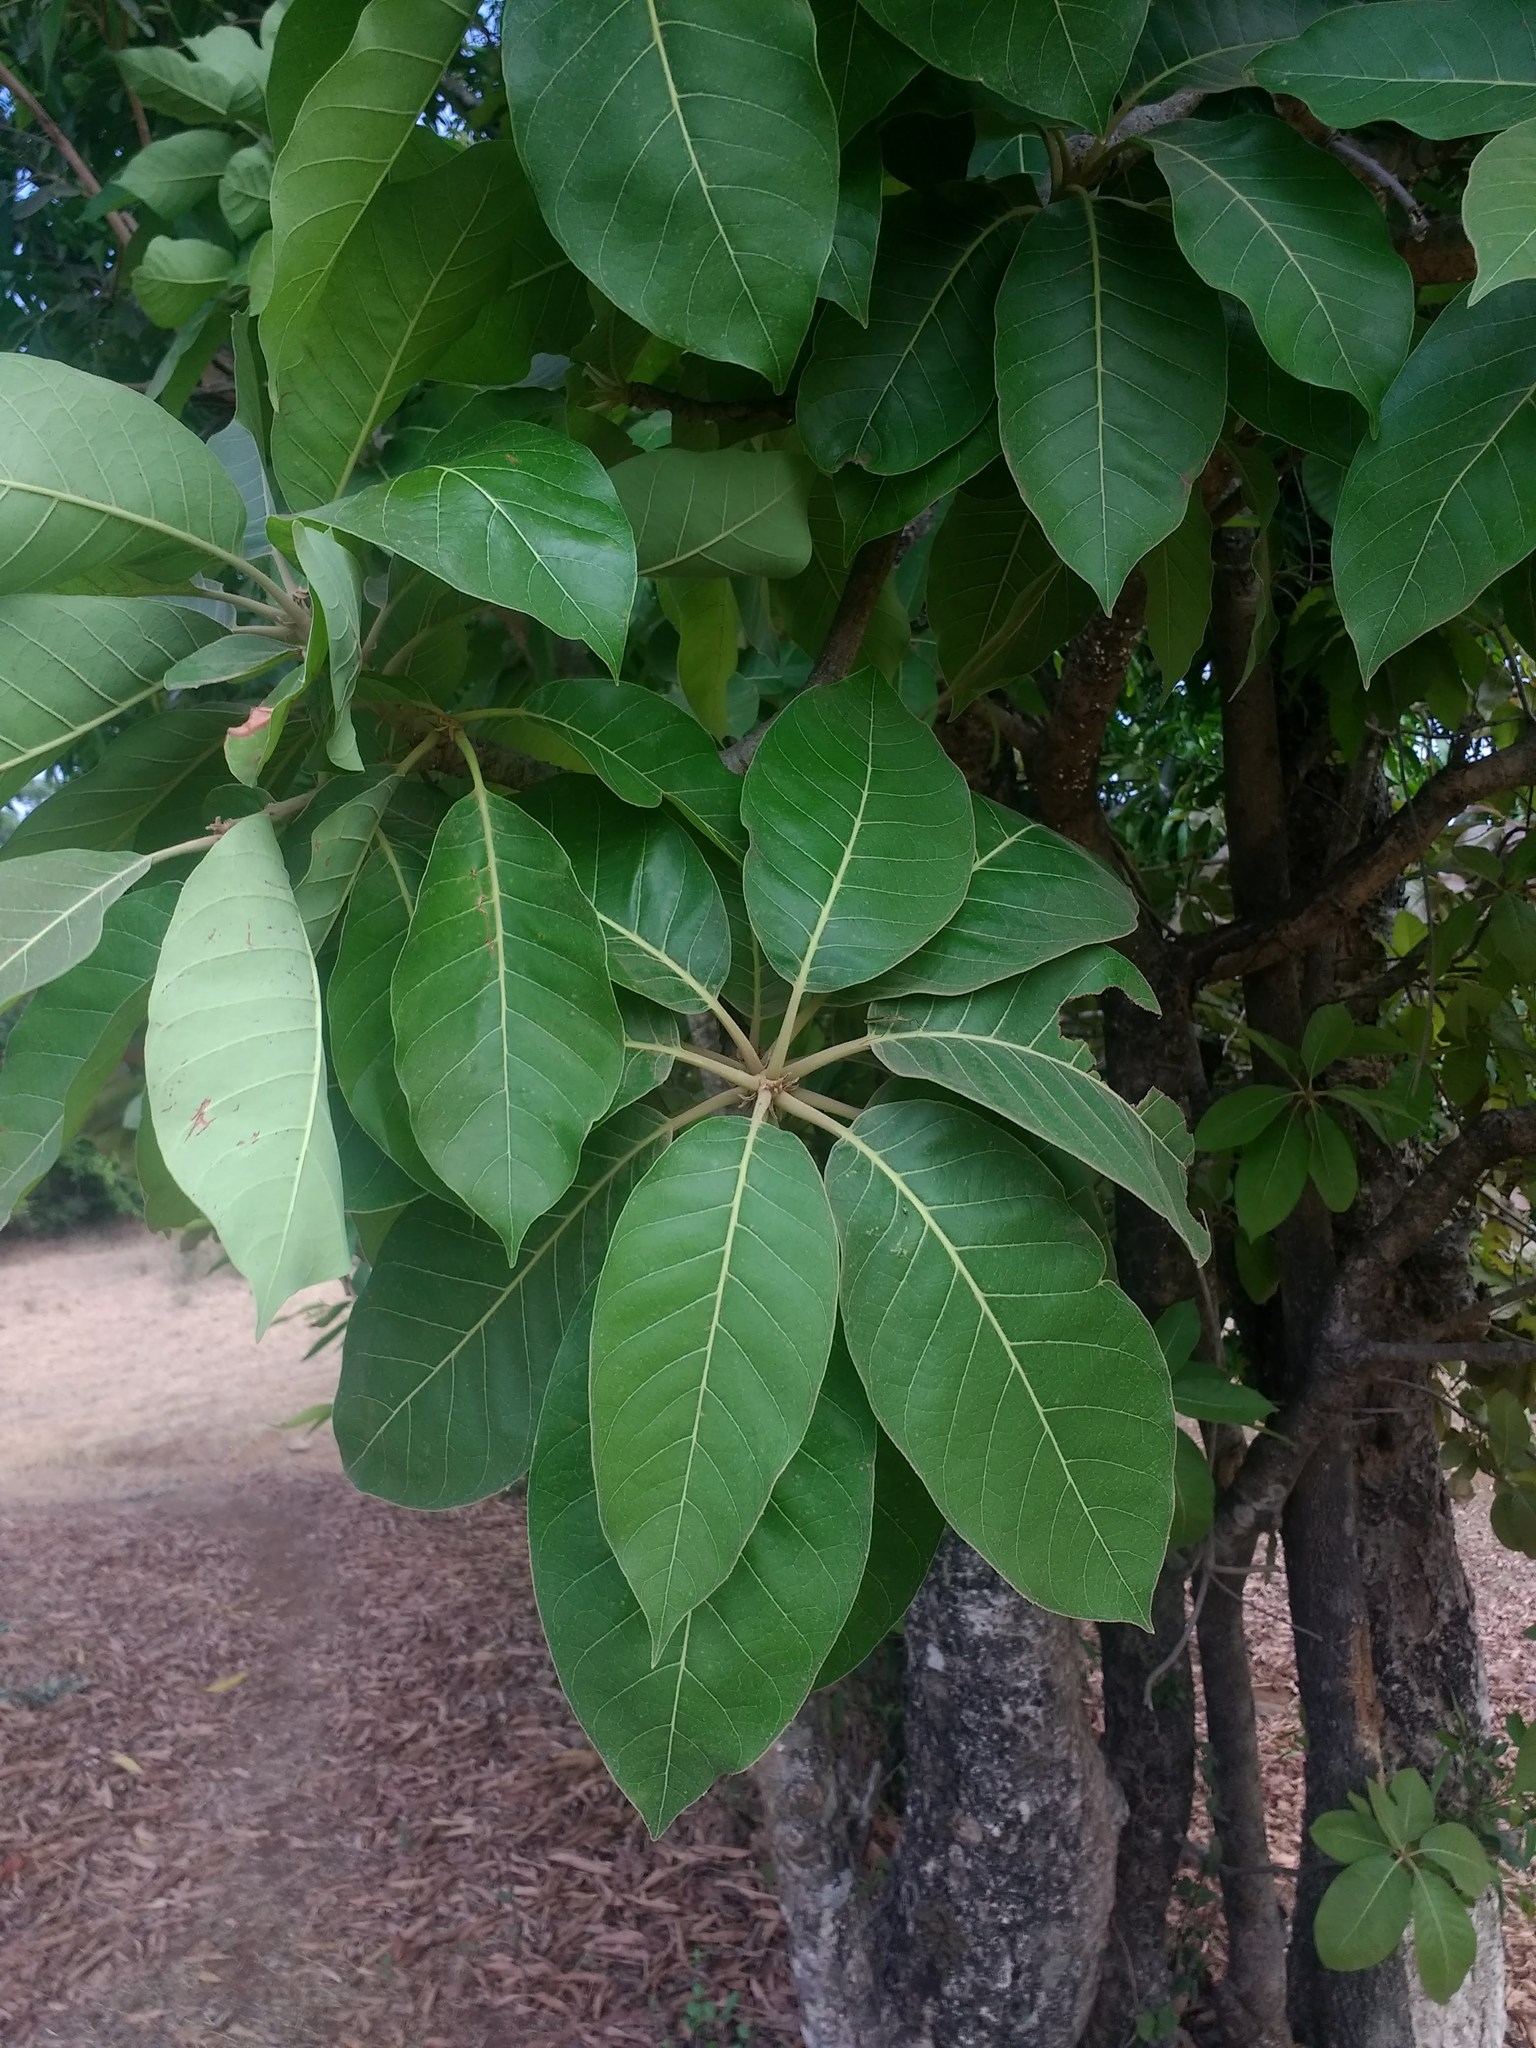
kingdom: Plantae
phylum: Tracheophyta
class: Magnoliopsida
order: Ericales
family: Sapotaceae
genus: Madhuca
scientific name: Madhuca longifolia
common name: Mowra-buttertree
